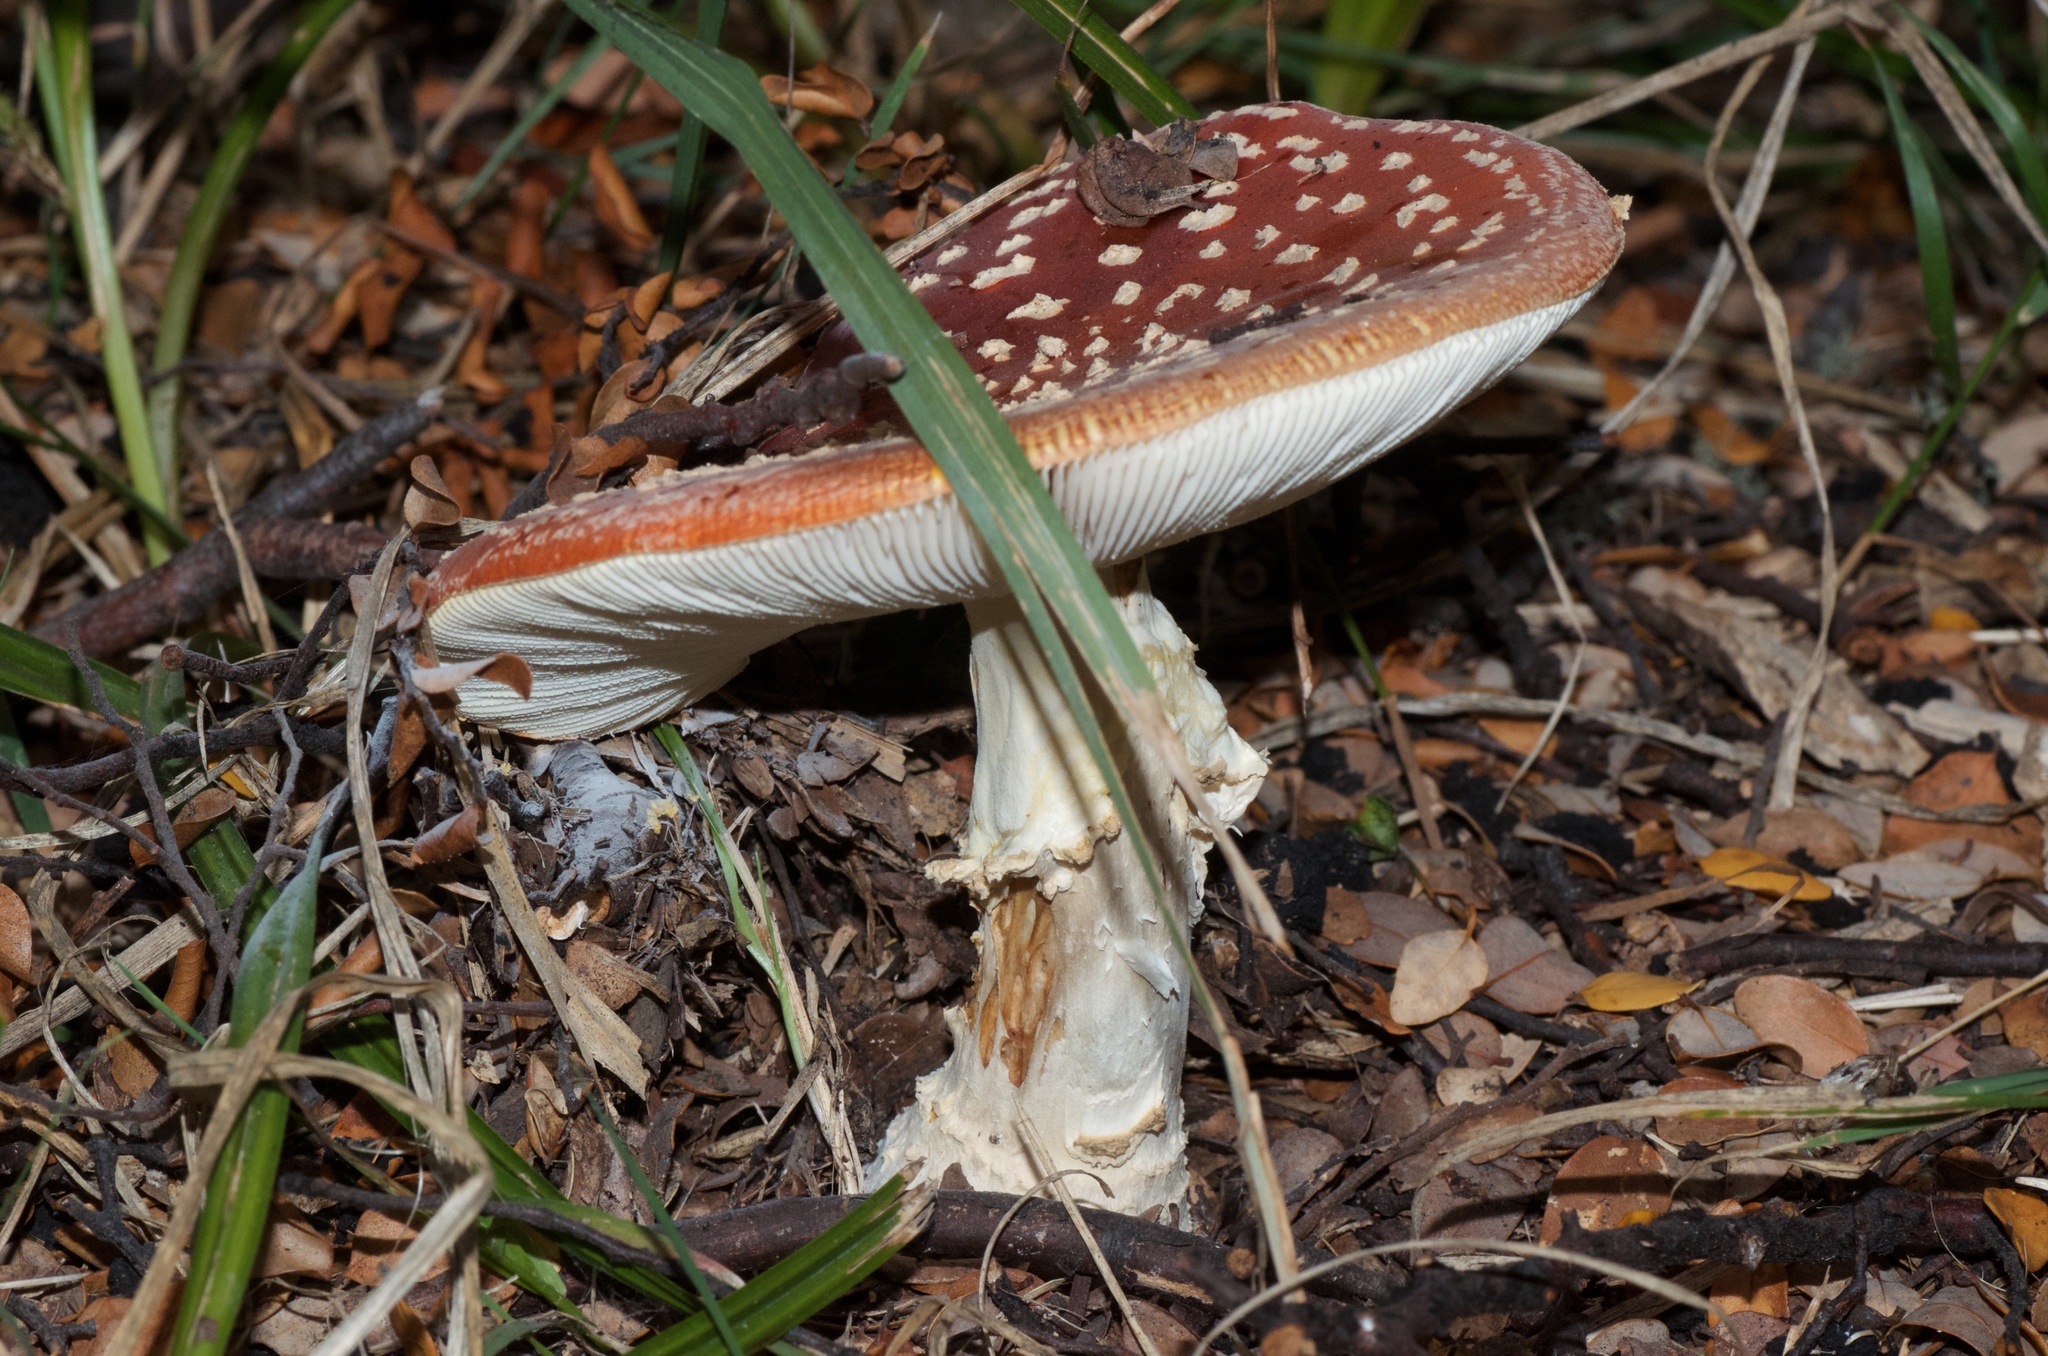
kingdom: Fungi
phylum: Basidiomycota
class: Agaricomycetes
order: Agaricales
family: Amanitaceae
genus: Amanita
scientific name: Amanita muscaria
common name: Fly agaric
